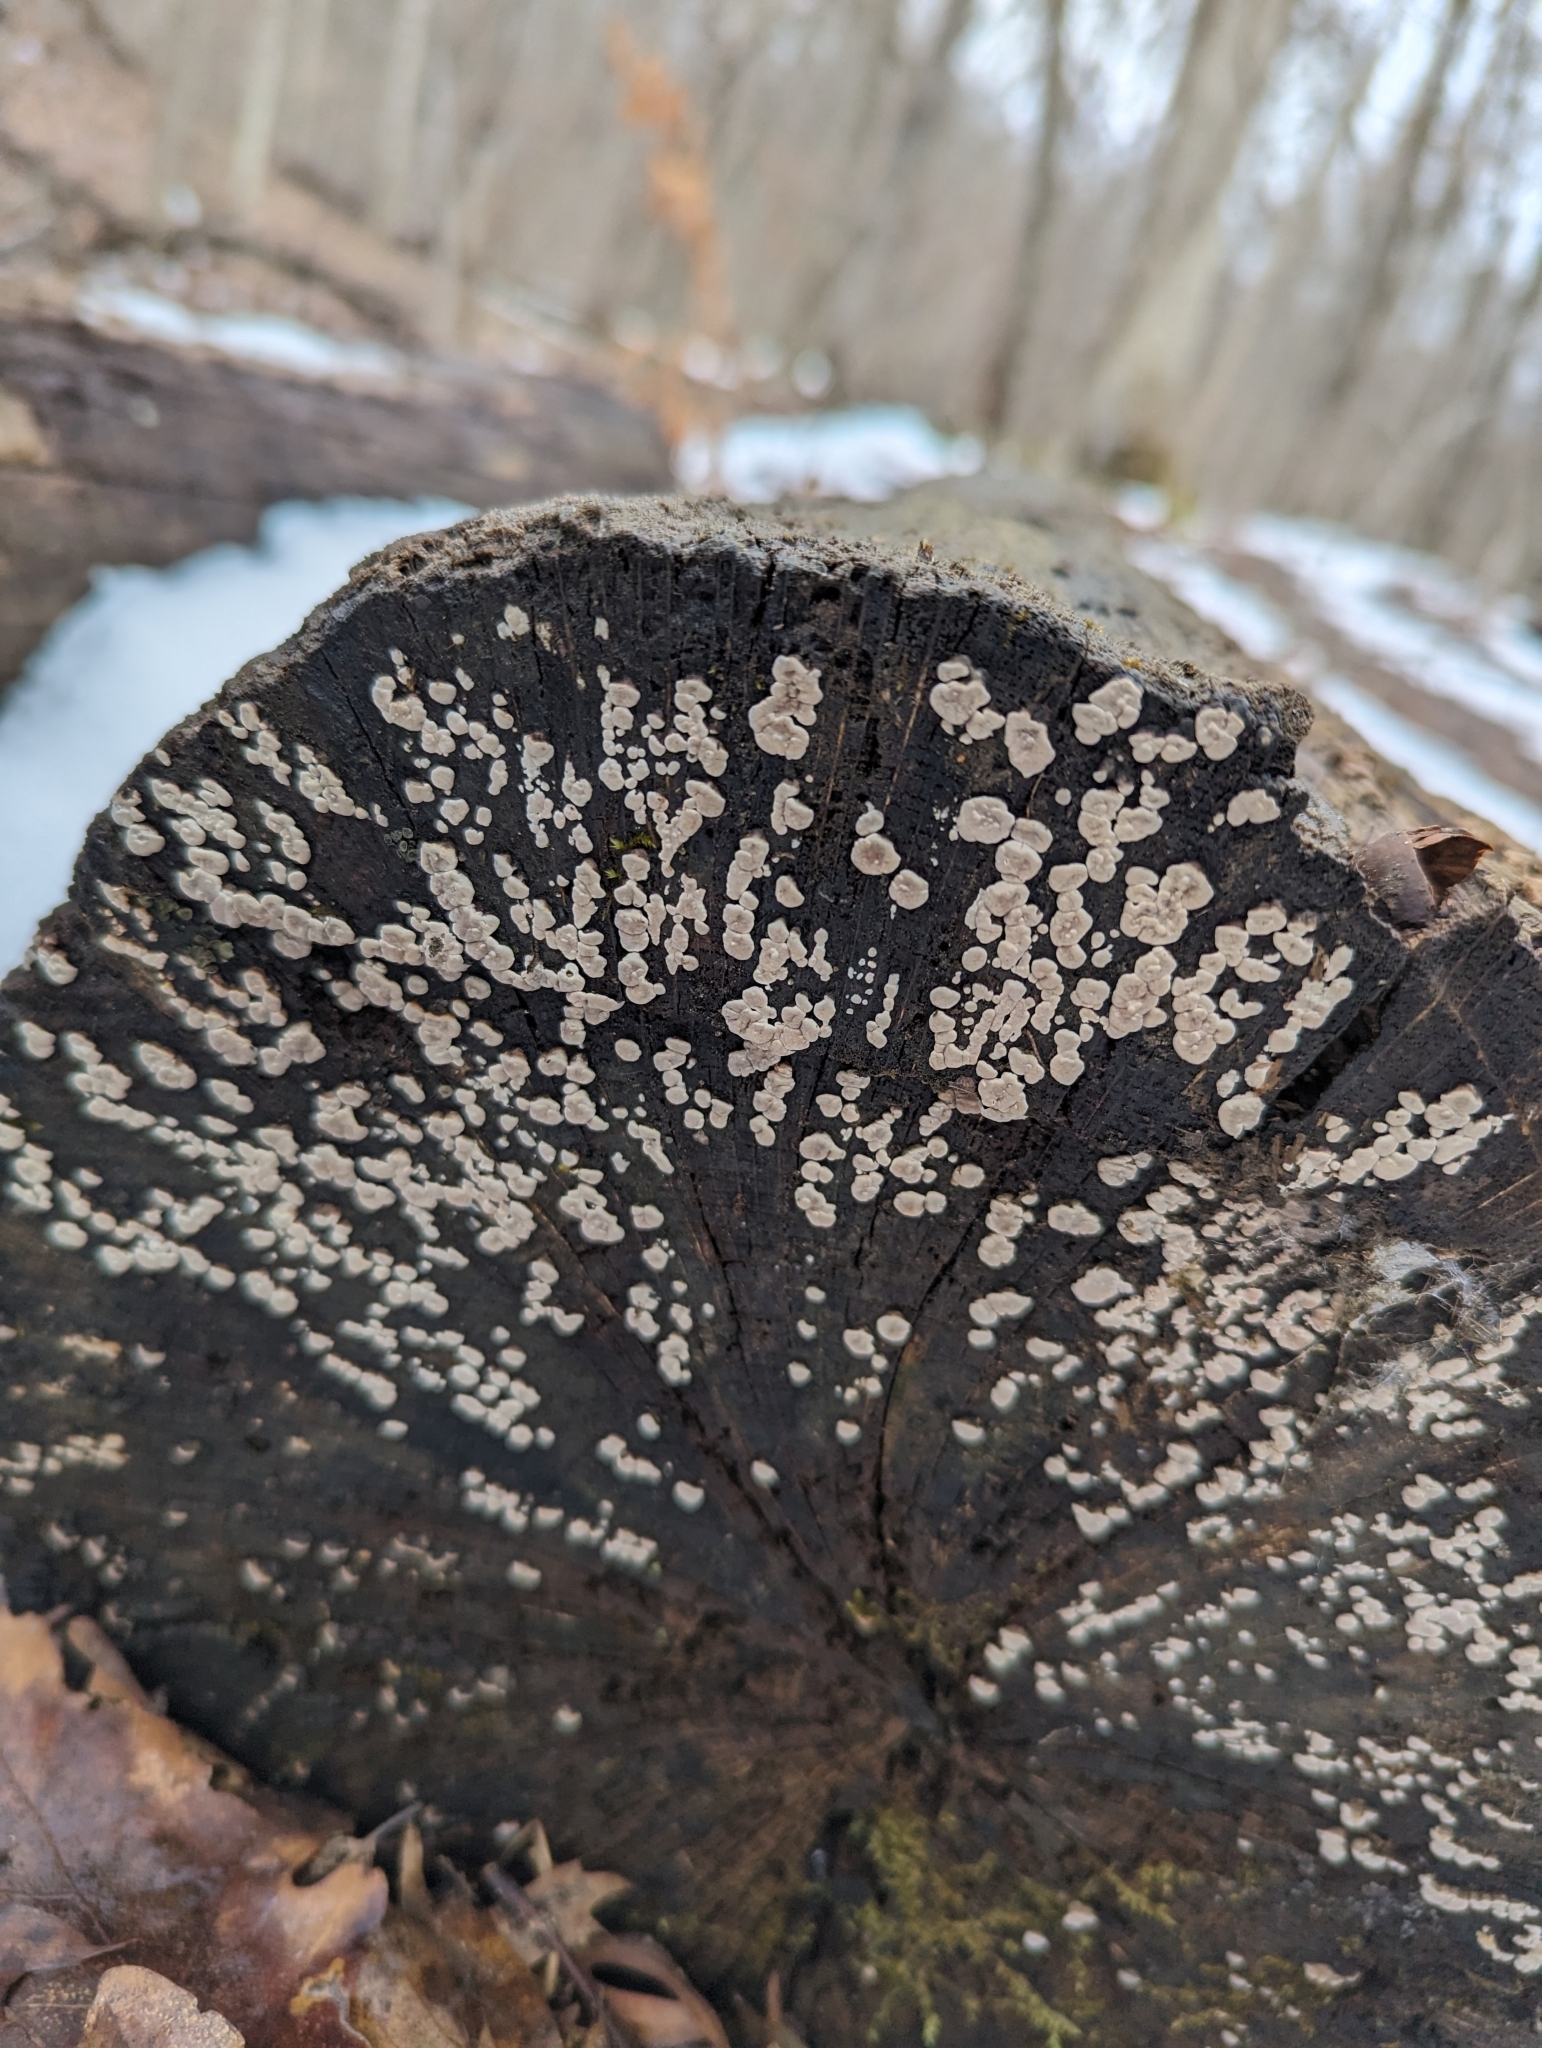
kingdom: Fungi
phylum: Basidiomycota
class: Agaricomycetes
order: Russulales
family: Stereaceae
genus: Xylobolus
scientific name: Xylobolus frustulatus
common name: Ceramic parchment
